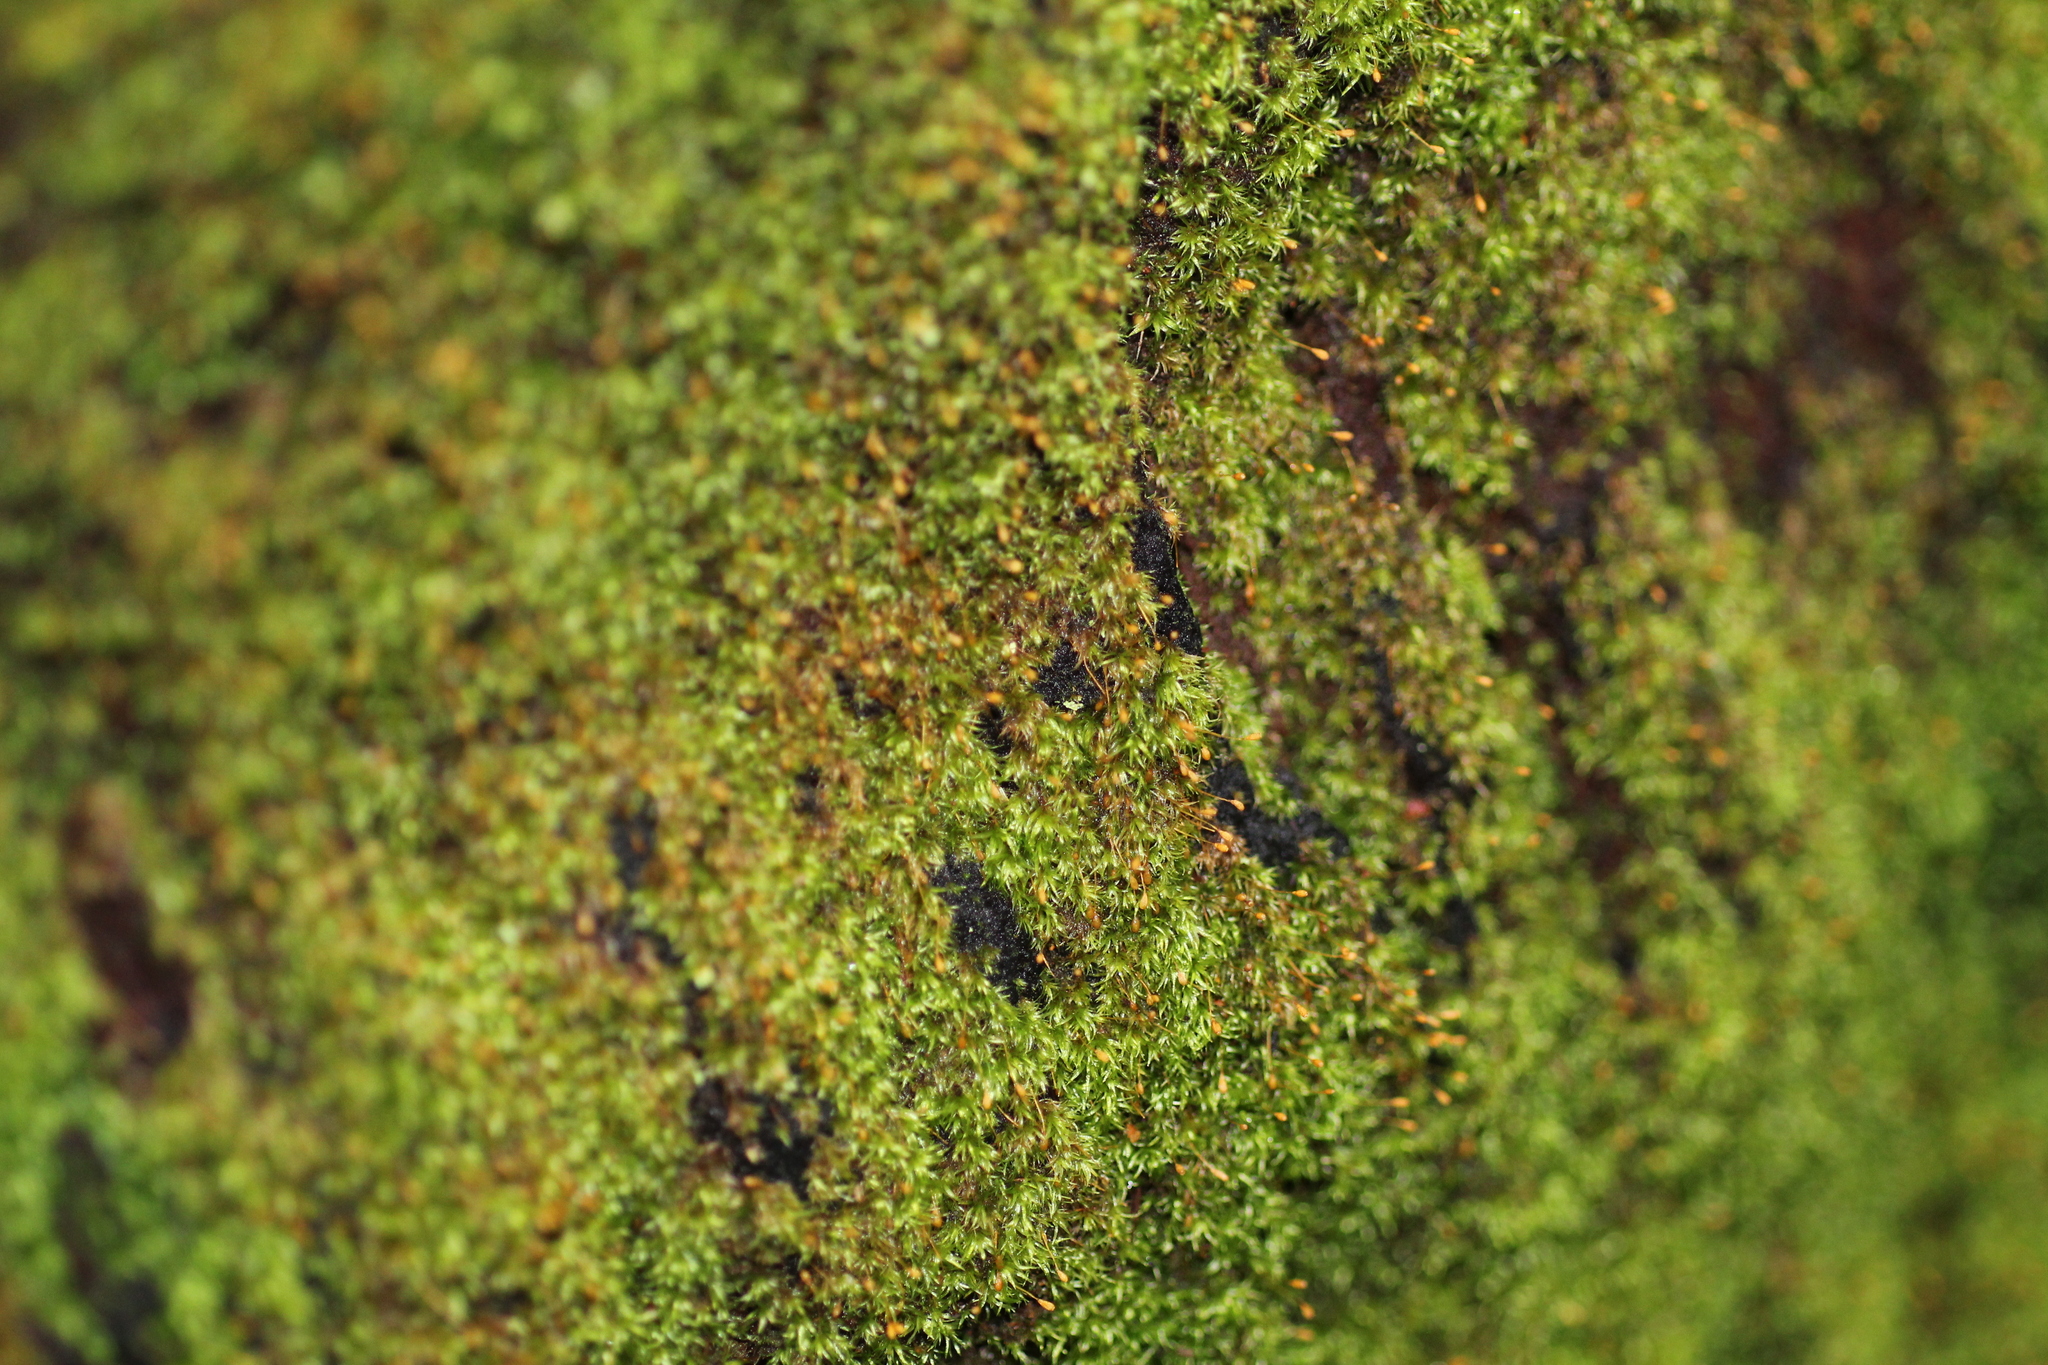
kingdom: Plantae
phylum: Bryophyta
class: Bryopsida
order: Orthodontiales
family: Orthodontiaceae
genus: Orthodontium
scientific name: Orthodontium lineare
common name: Cape thread-moss
